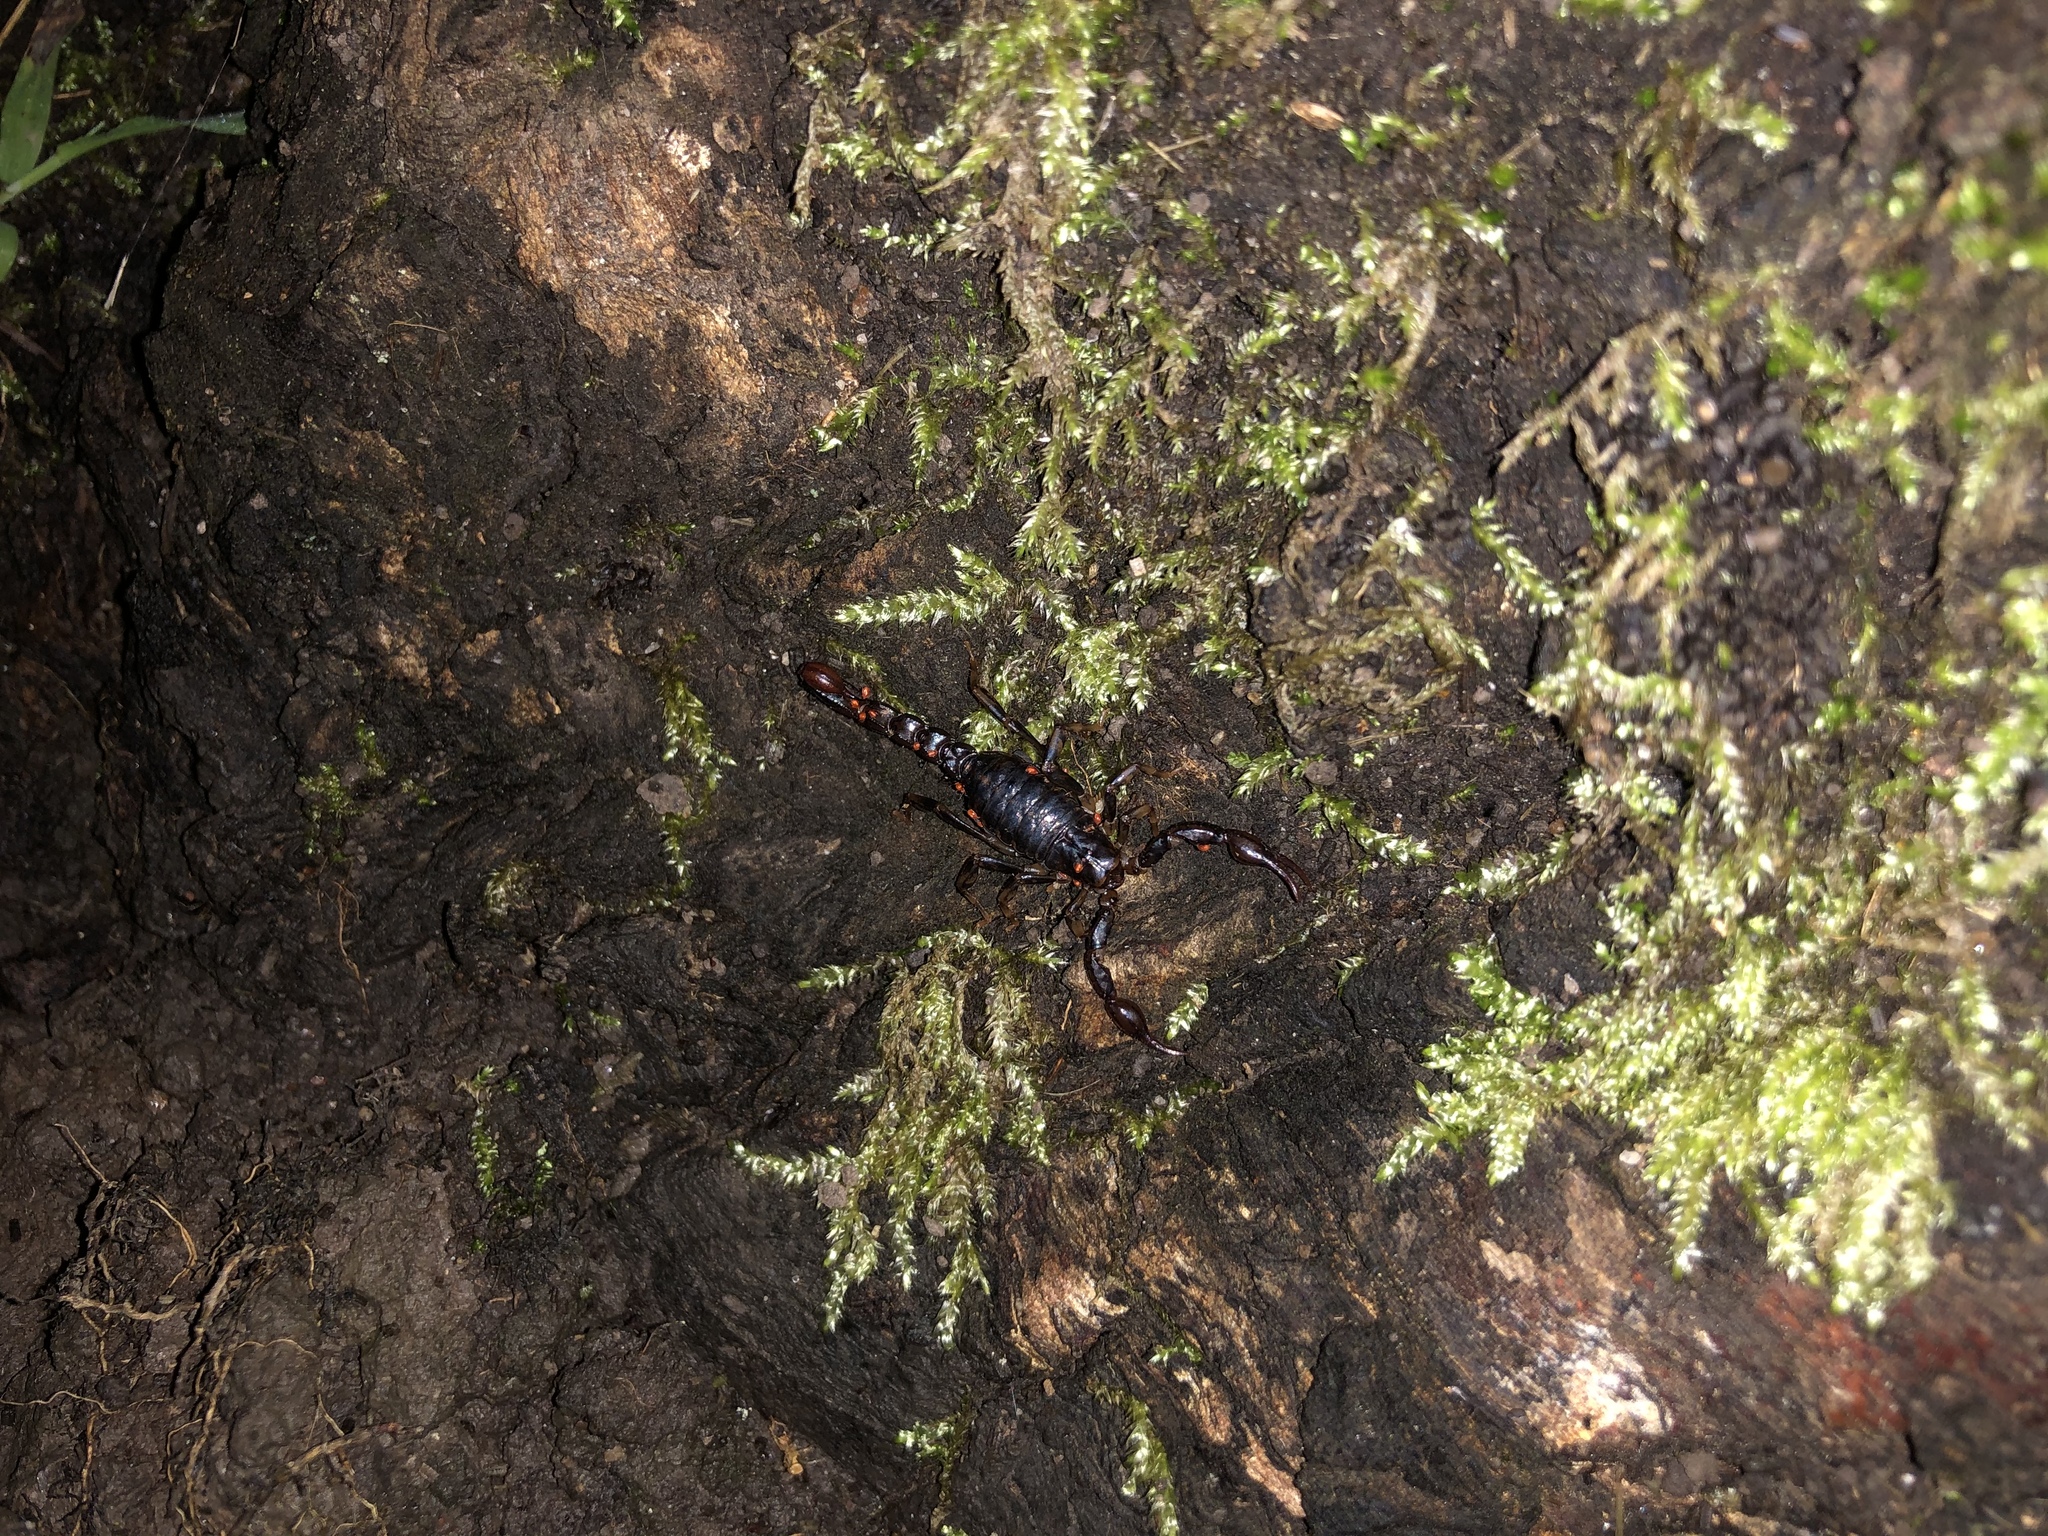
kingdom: Animalia
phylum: Arthropoda
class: Arachnida
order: Scorpiones
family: Bothriuridae
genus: Cercophonius
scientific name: Cercophonius squama
